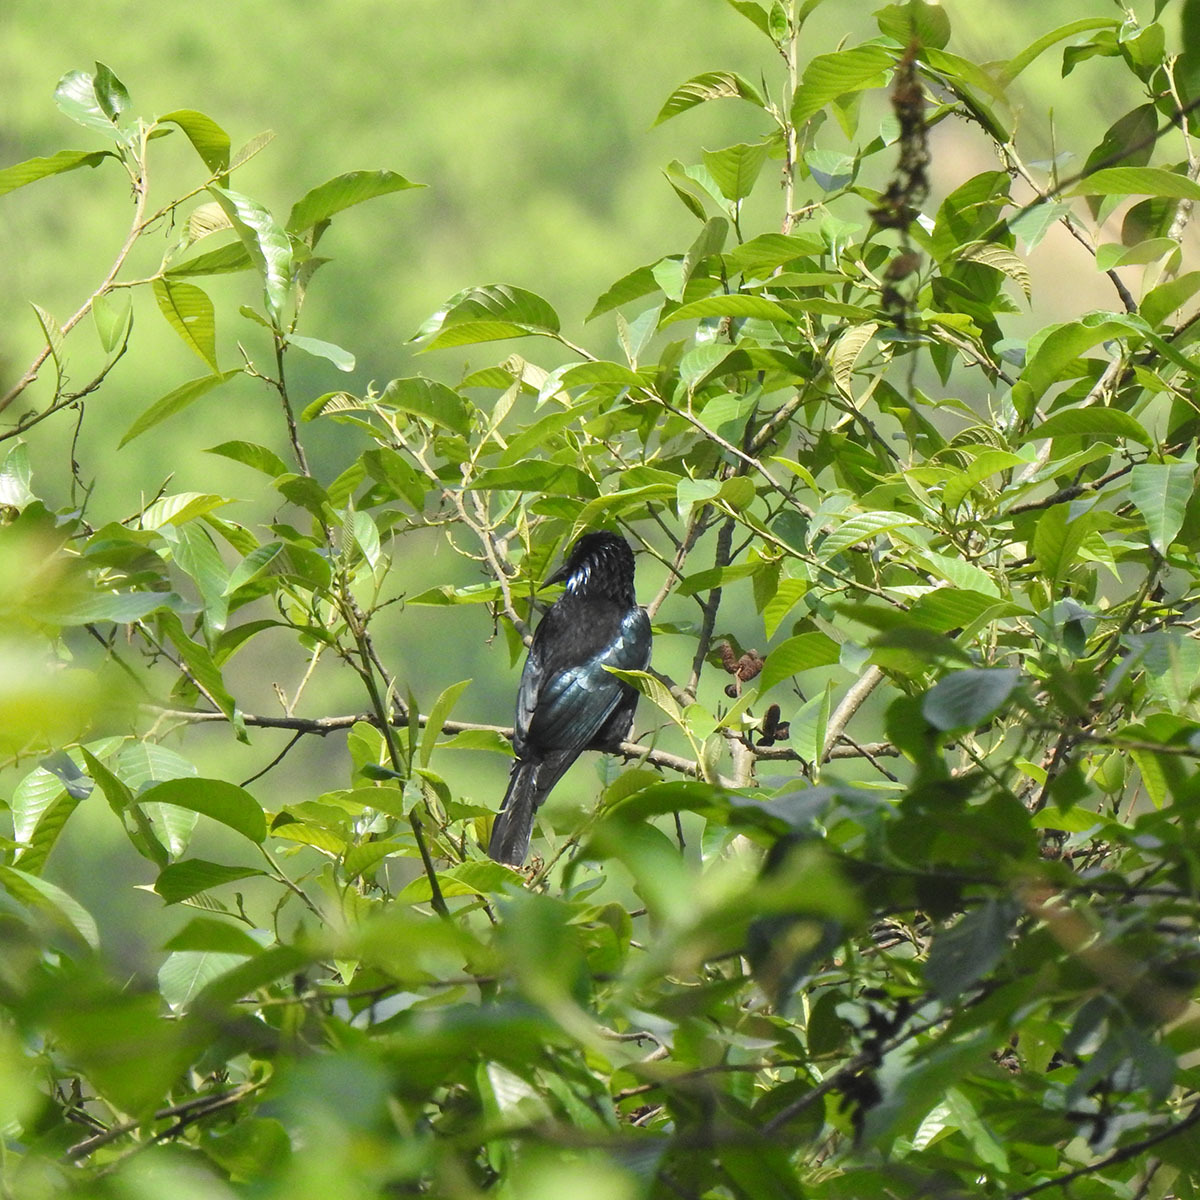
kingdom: Animalia
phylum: Chordata
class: Aves
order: Passeriformes
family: Dicruridae
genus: Dicrurus
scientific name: Dicrurus hottentottus
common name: Hair-crested drongo
